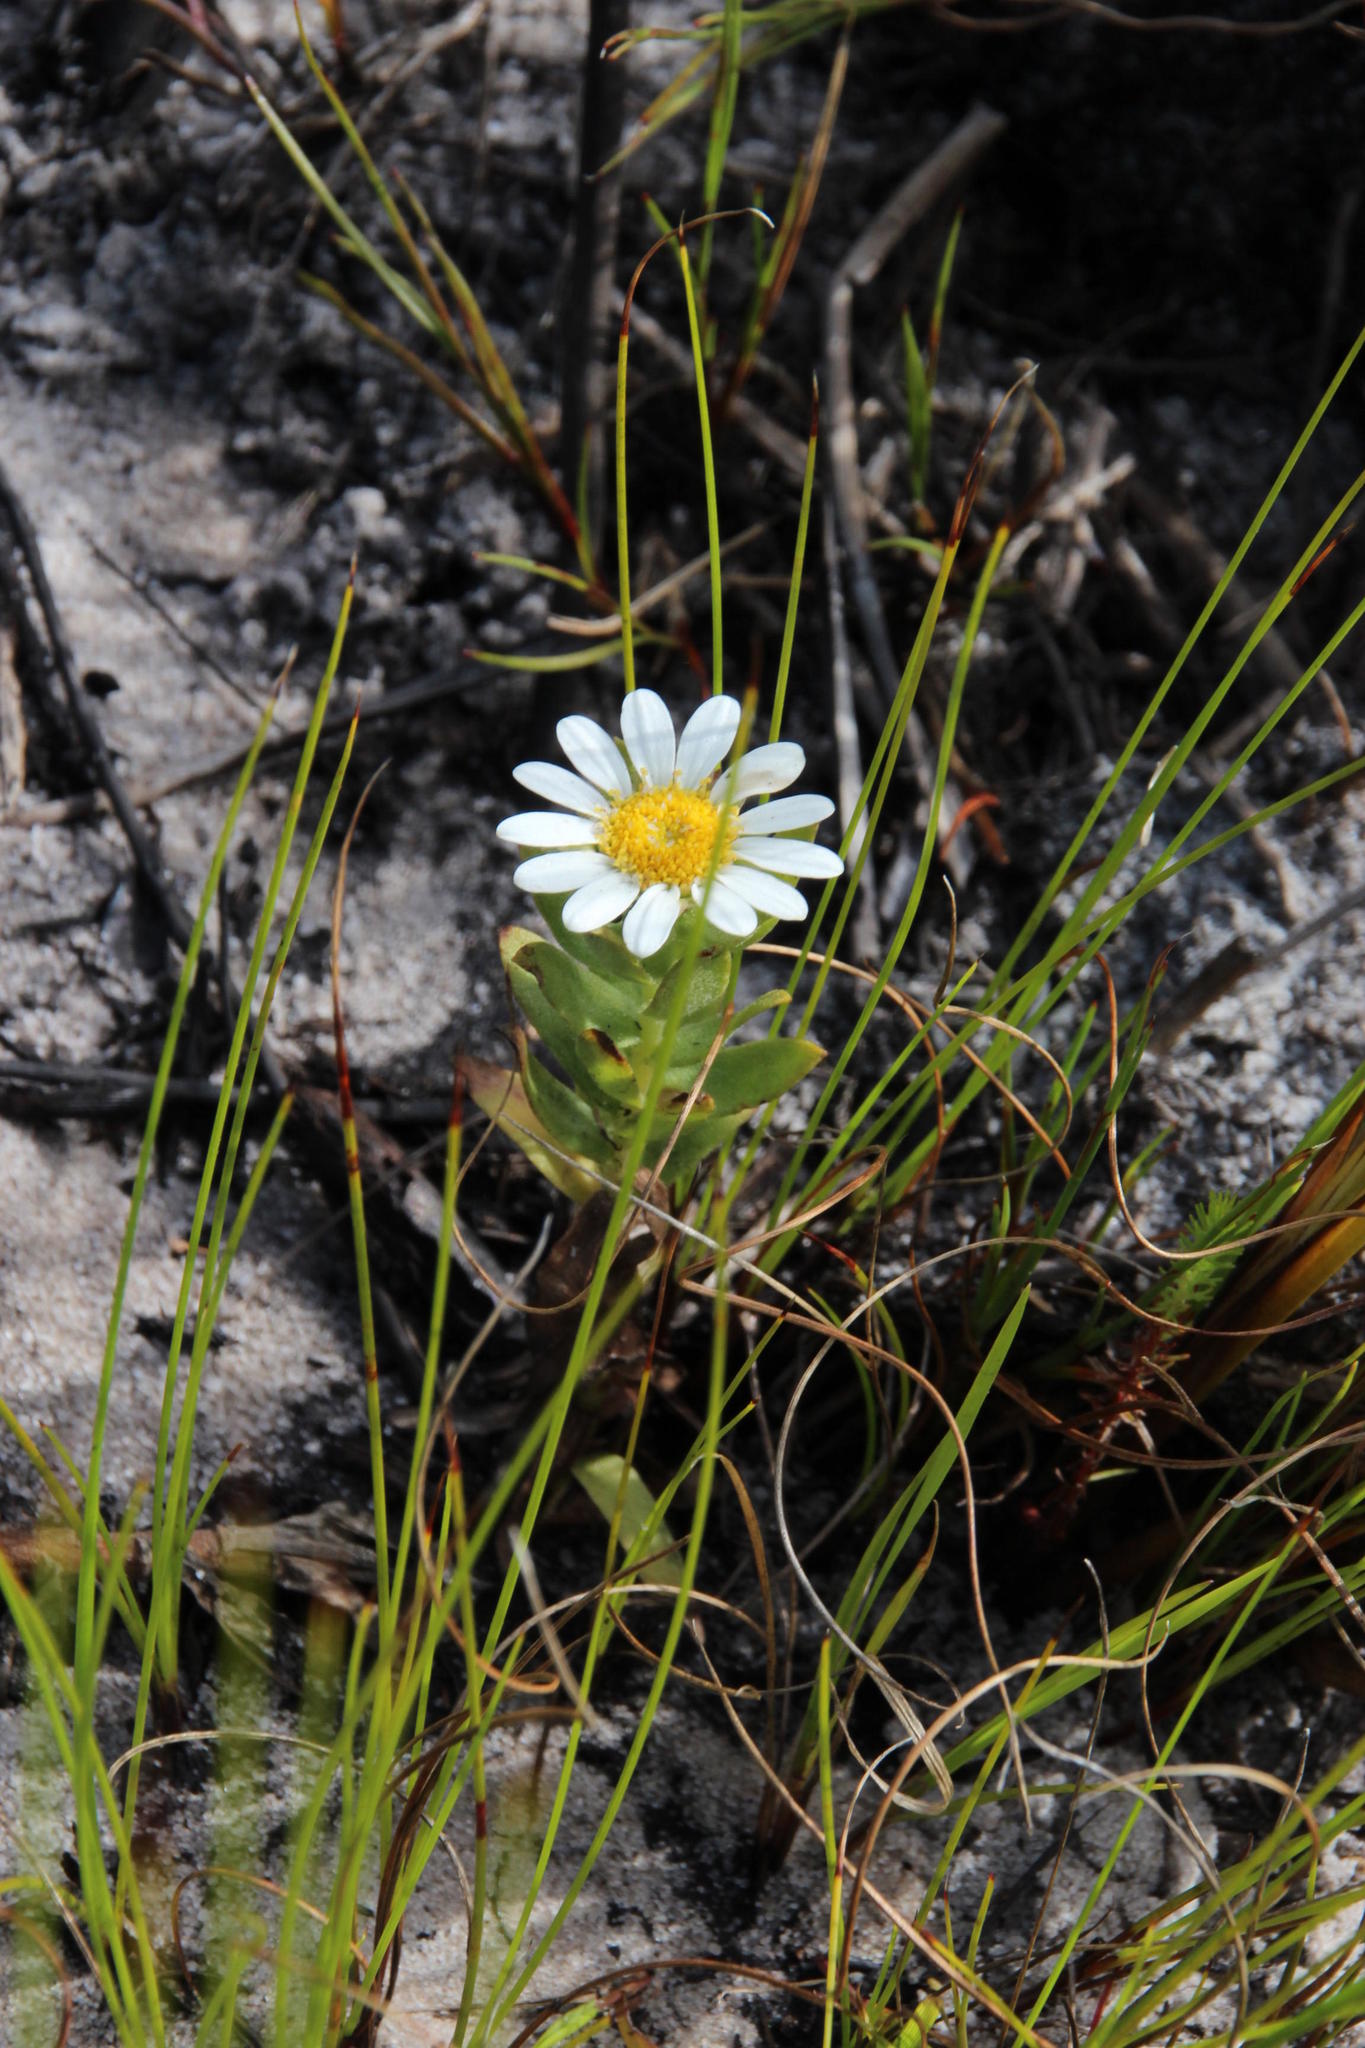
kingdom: Plantae
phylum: Tracheophyta
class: Magnoliopsida
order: Asterales
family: Asteraceae
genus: Osmitopsis
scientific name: Osmitopsis asteriscoides
